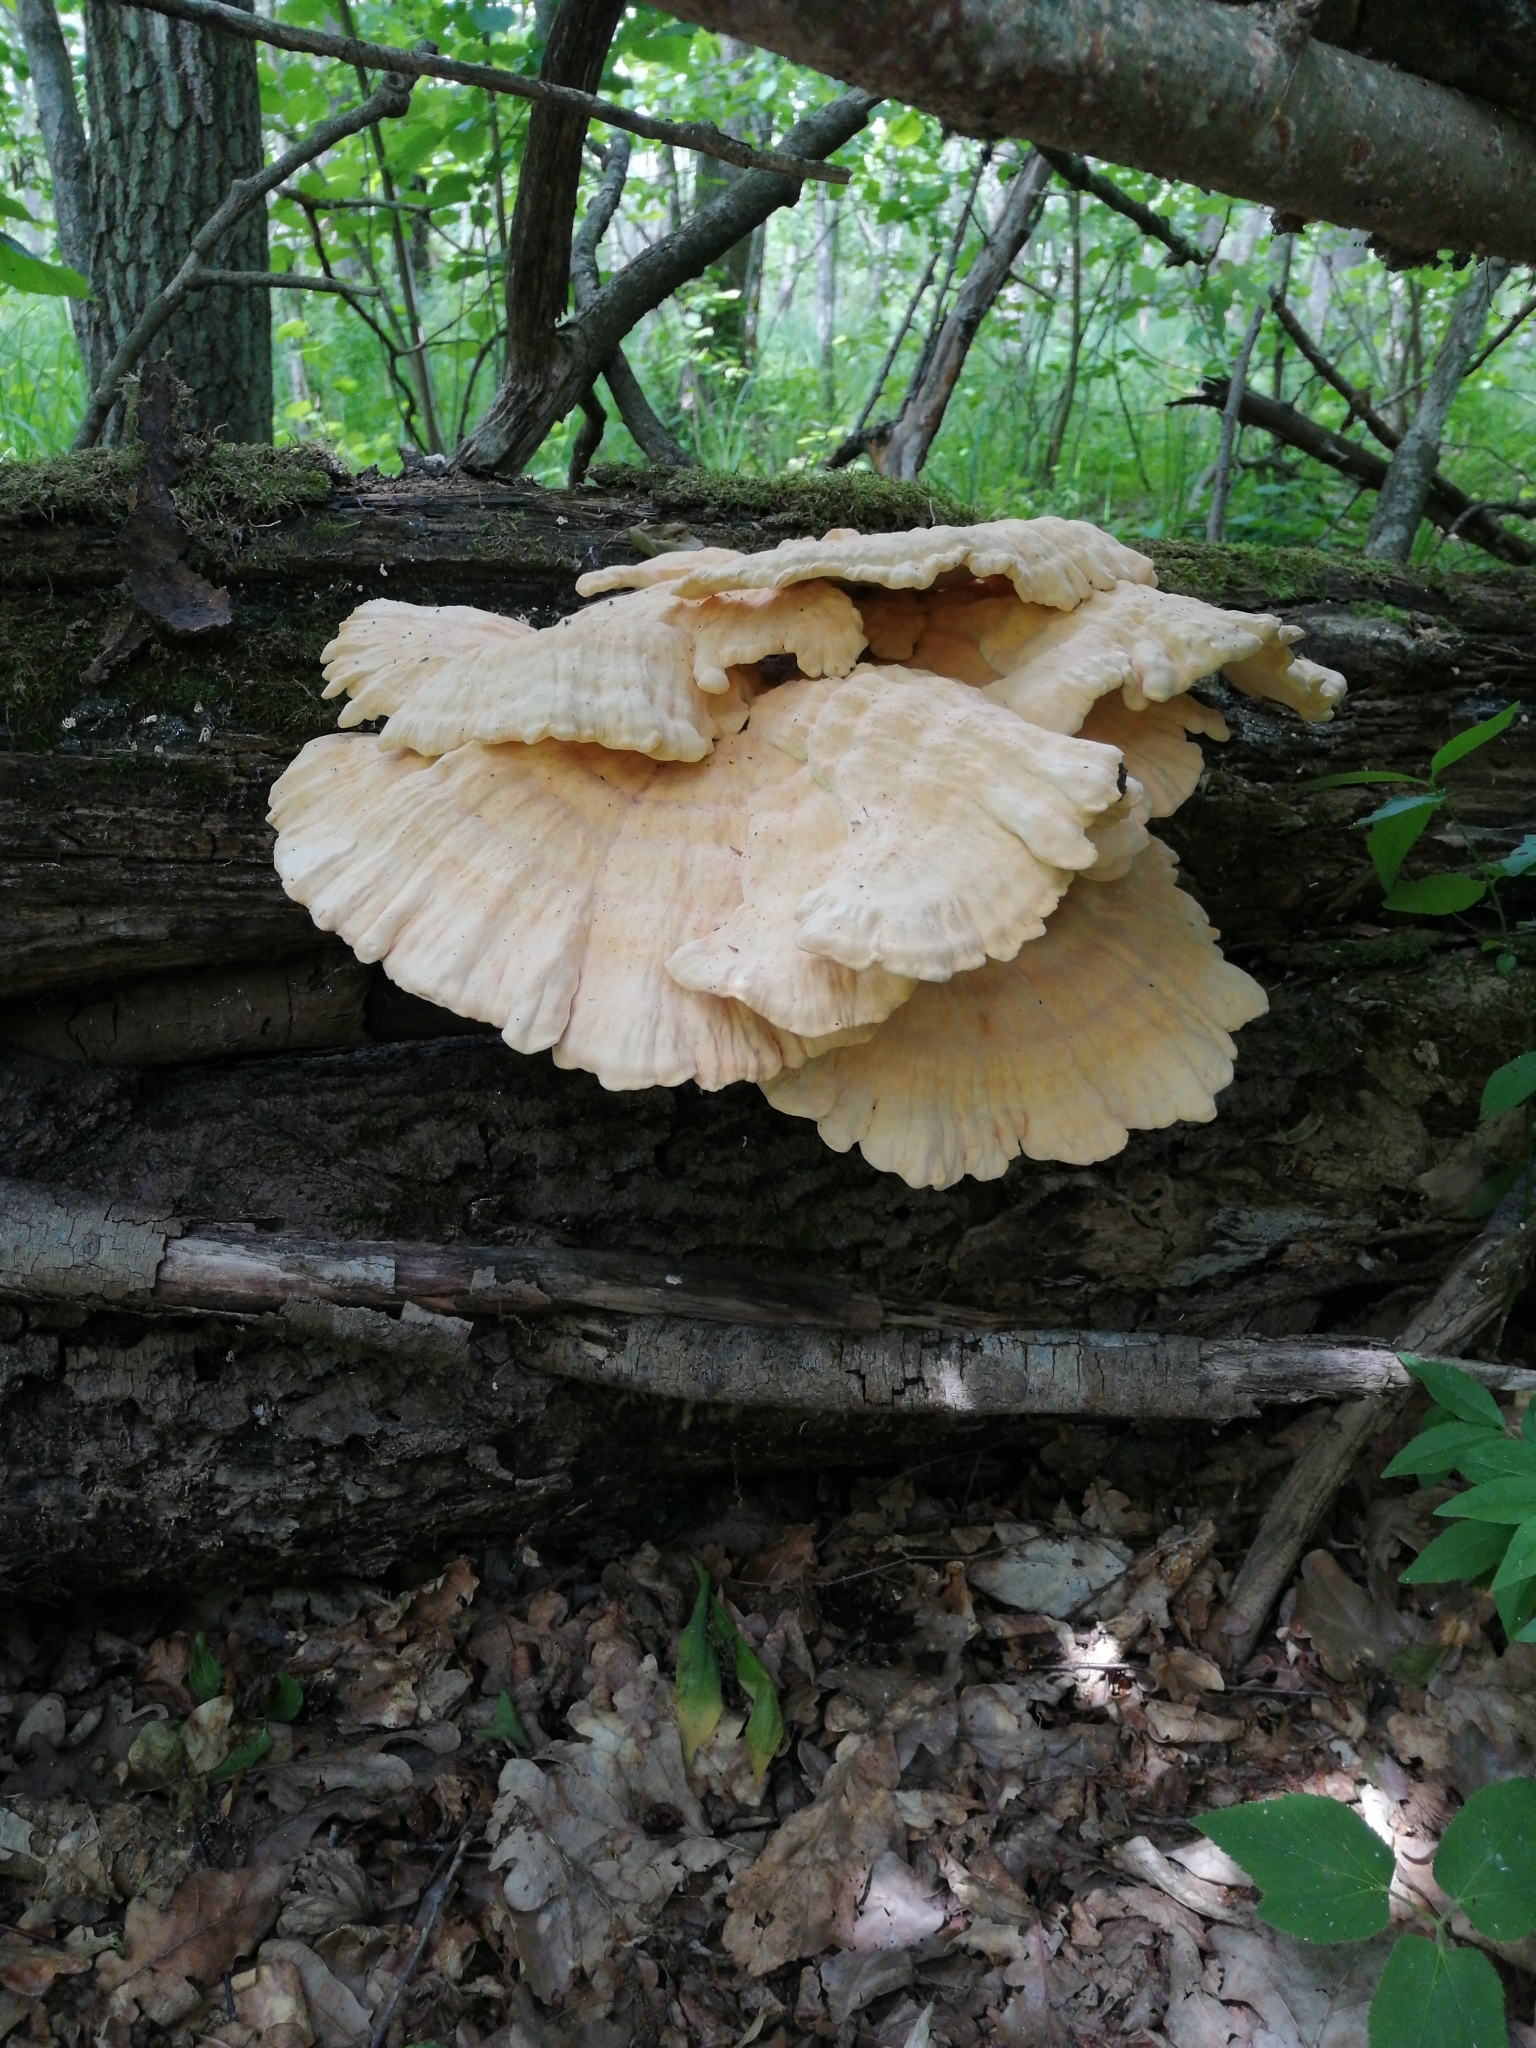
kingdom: Fungi
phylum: Basidiomycota
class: Agaricomycetes
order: Polyporales
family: Laetiporaceae
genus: Laetiporus
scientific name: Laetiporus sulphureus
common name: Chicken of the woods
